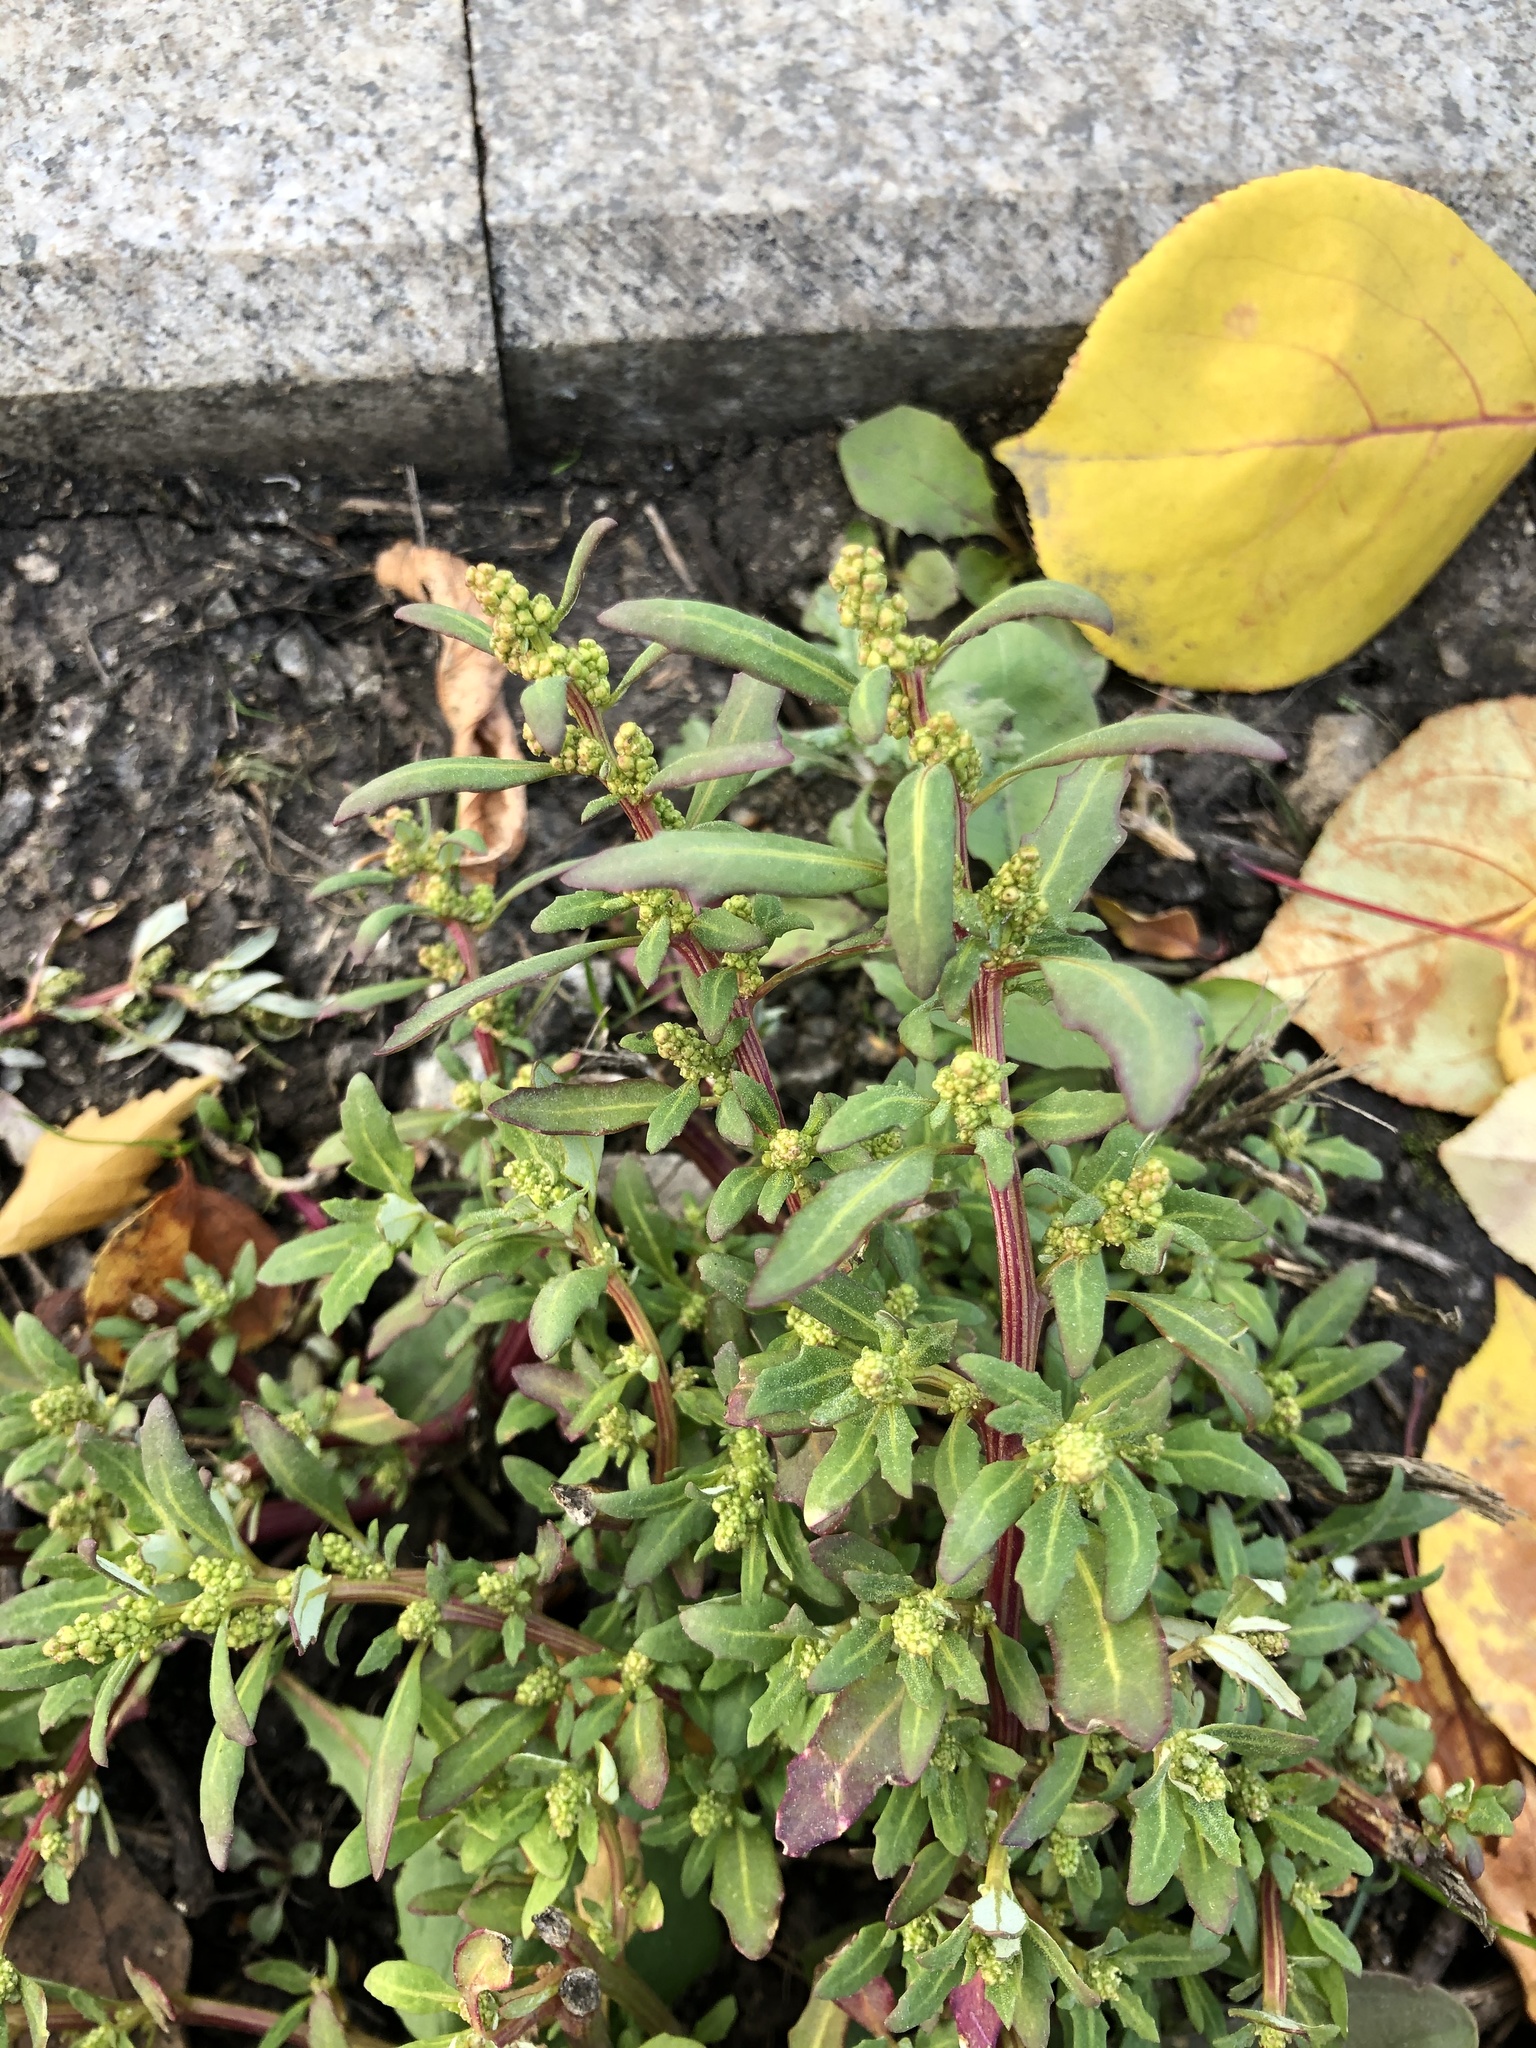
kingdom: Plantae
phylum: Tracheophyta
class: Magnoliopsida
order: Caryophyllales
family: Amaranthaceae
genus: Oxybasis
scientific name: Oxybasis glauca
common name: Glaucous goosefoot
